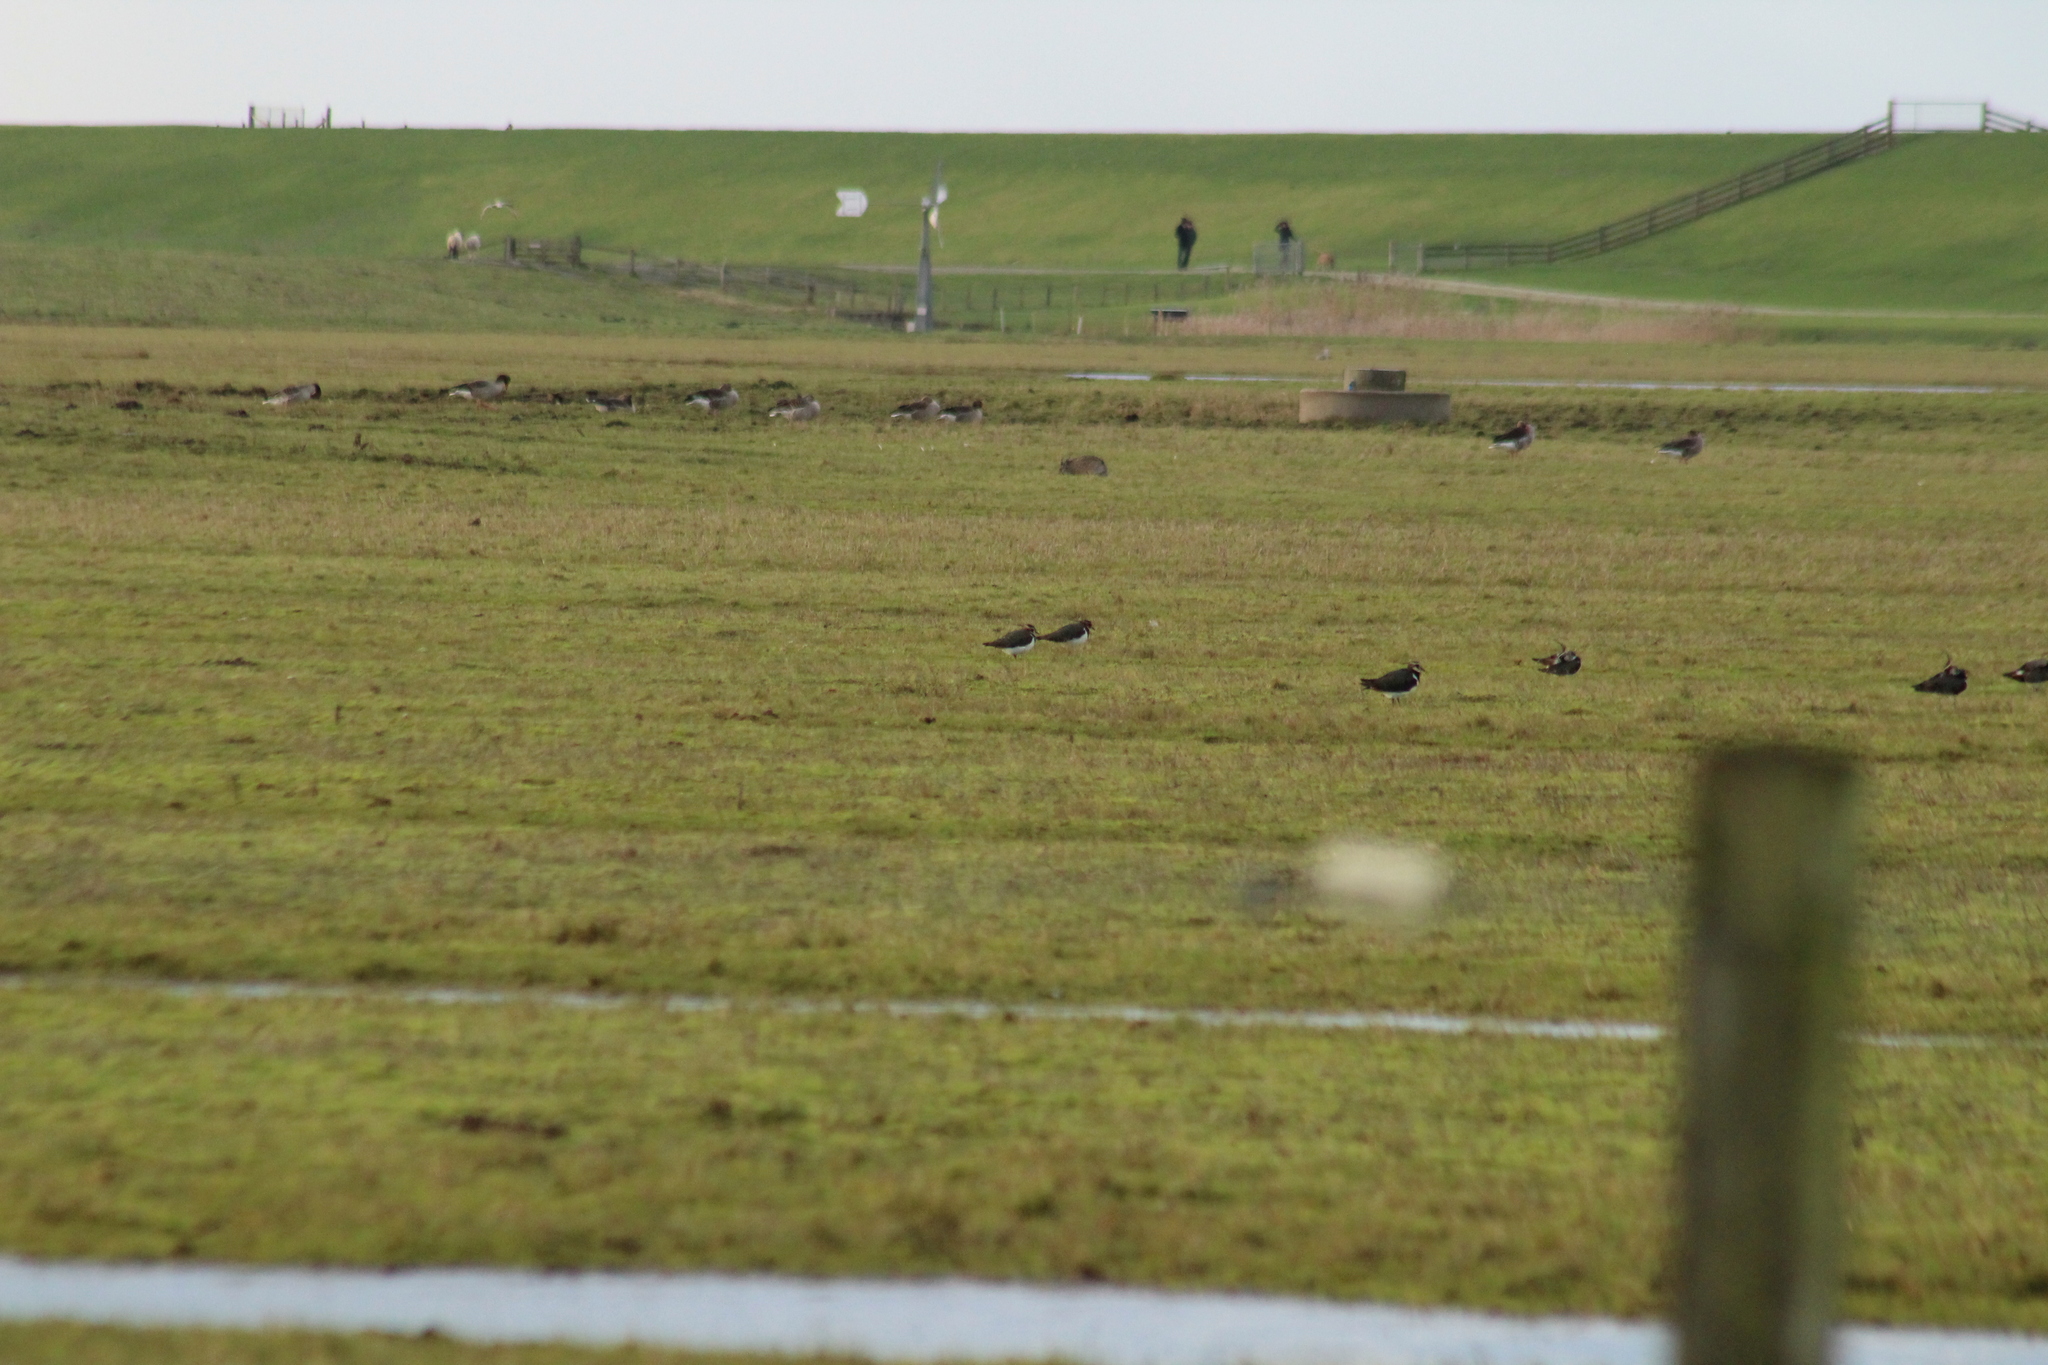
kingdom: Animalia
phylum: Chordata
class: Aves
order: Charadriiformes
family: Charadriidae
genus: Vanellus
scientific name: Vanellus vanellus
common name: Northern lapwing
